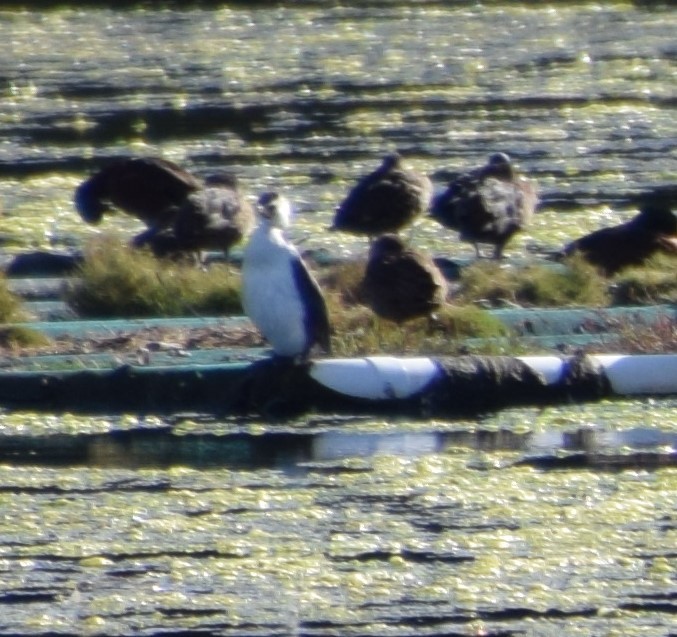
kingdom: Animalia
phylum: Chordata
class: Aves
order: Suliformes
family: Phalacrocoracidae
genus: Microcarbo
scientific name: Microcarbo melanoleucos
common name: Little pied cormorant
